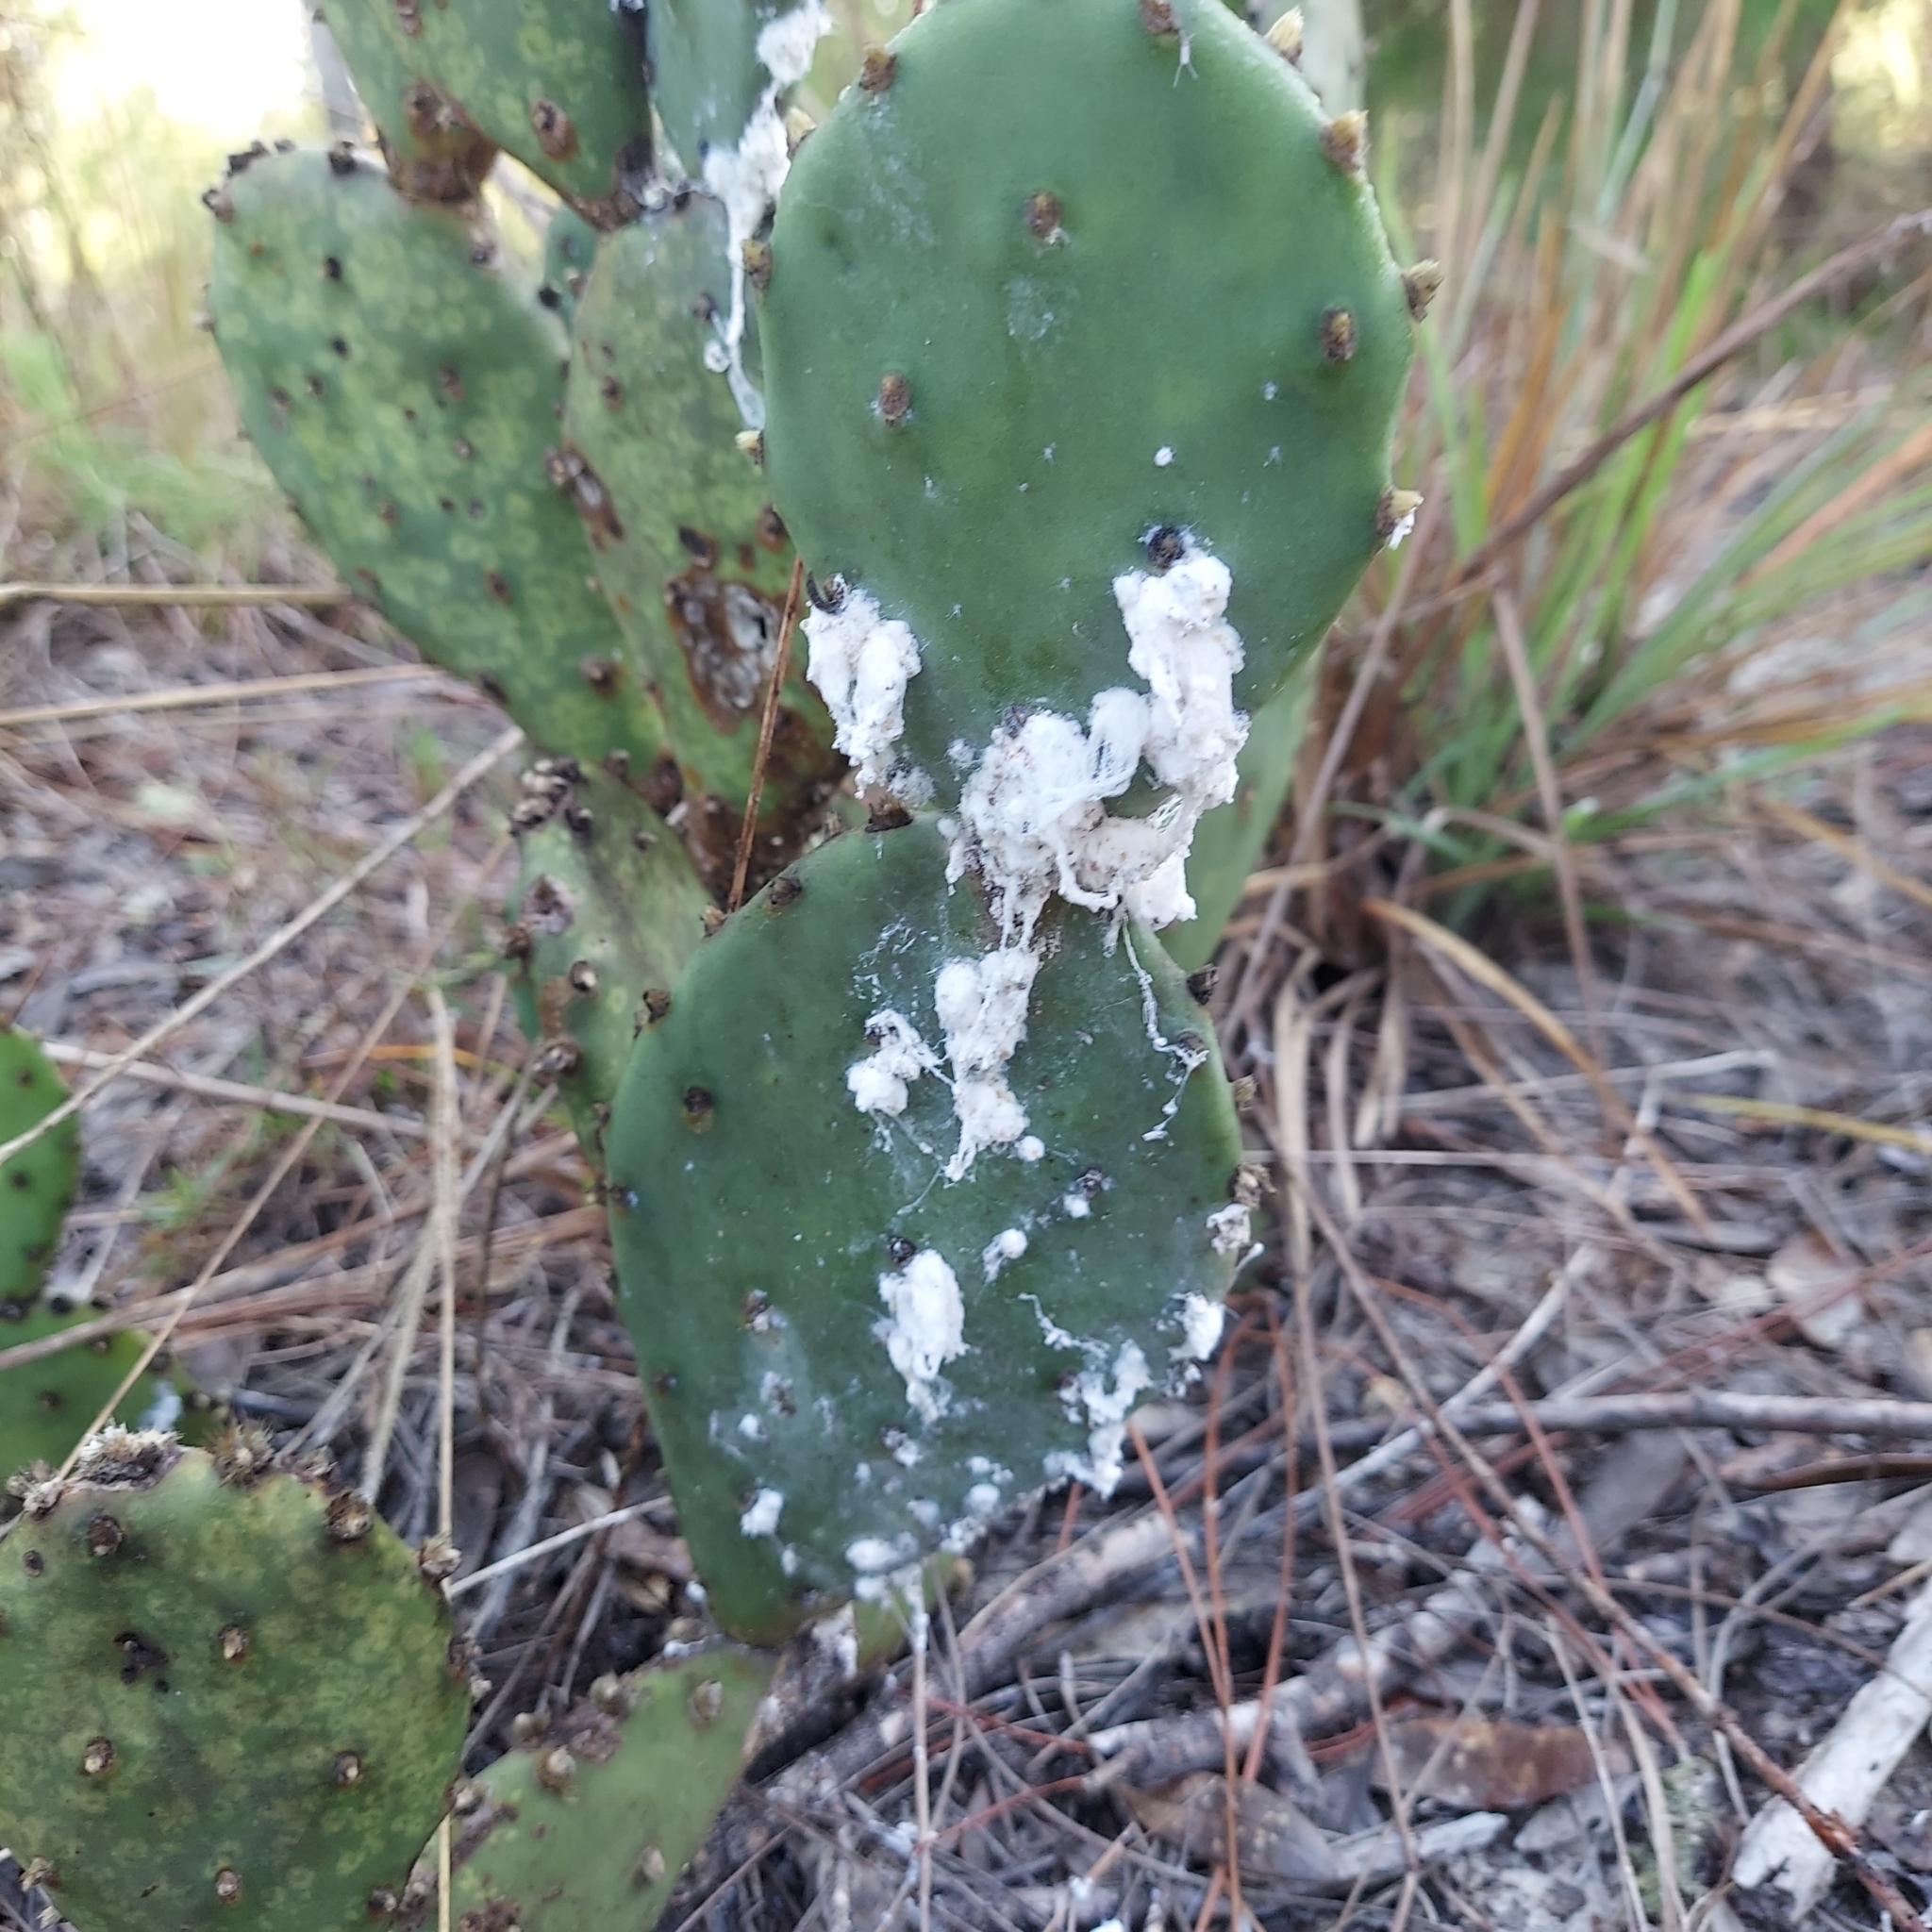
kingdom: Animalia
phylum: Arthropoda
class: Insecta
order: Hemiptera
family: Dactylopiidae
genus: Dactylopius
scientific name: Dactylopius confusus
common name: California cochineal scale
